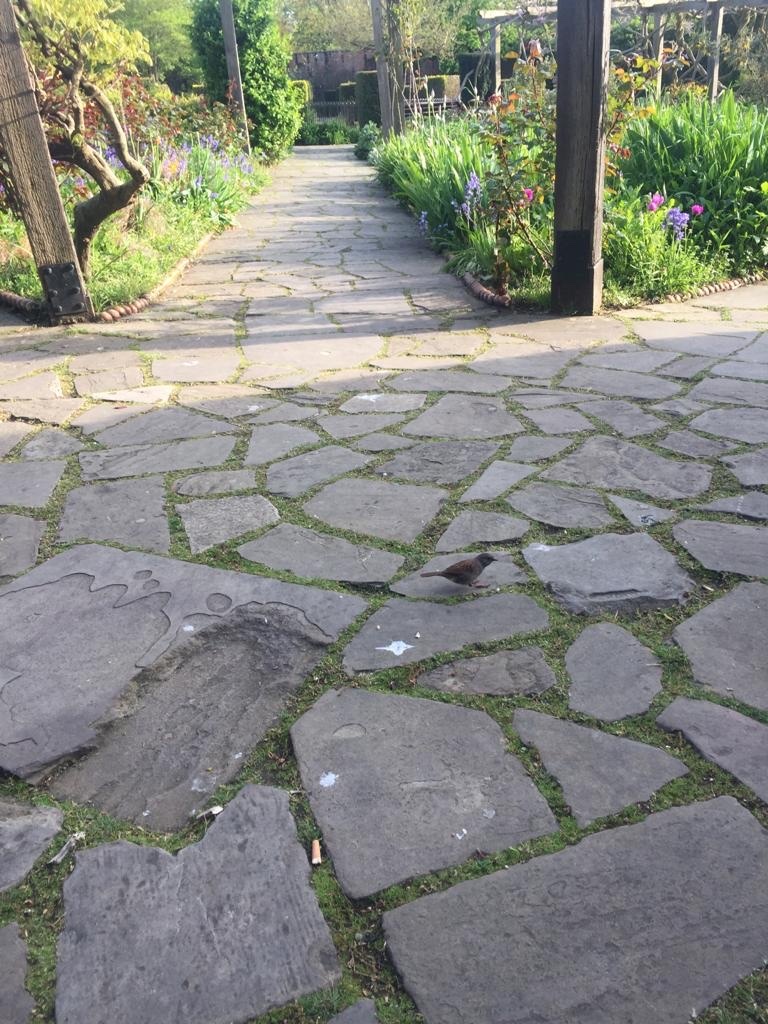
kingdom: Animalia
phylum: Chordata
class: Aves
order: Passeriformes
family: Prunellidae
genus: Prunella
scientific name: Prunella modularis
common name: Dunnock
